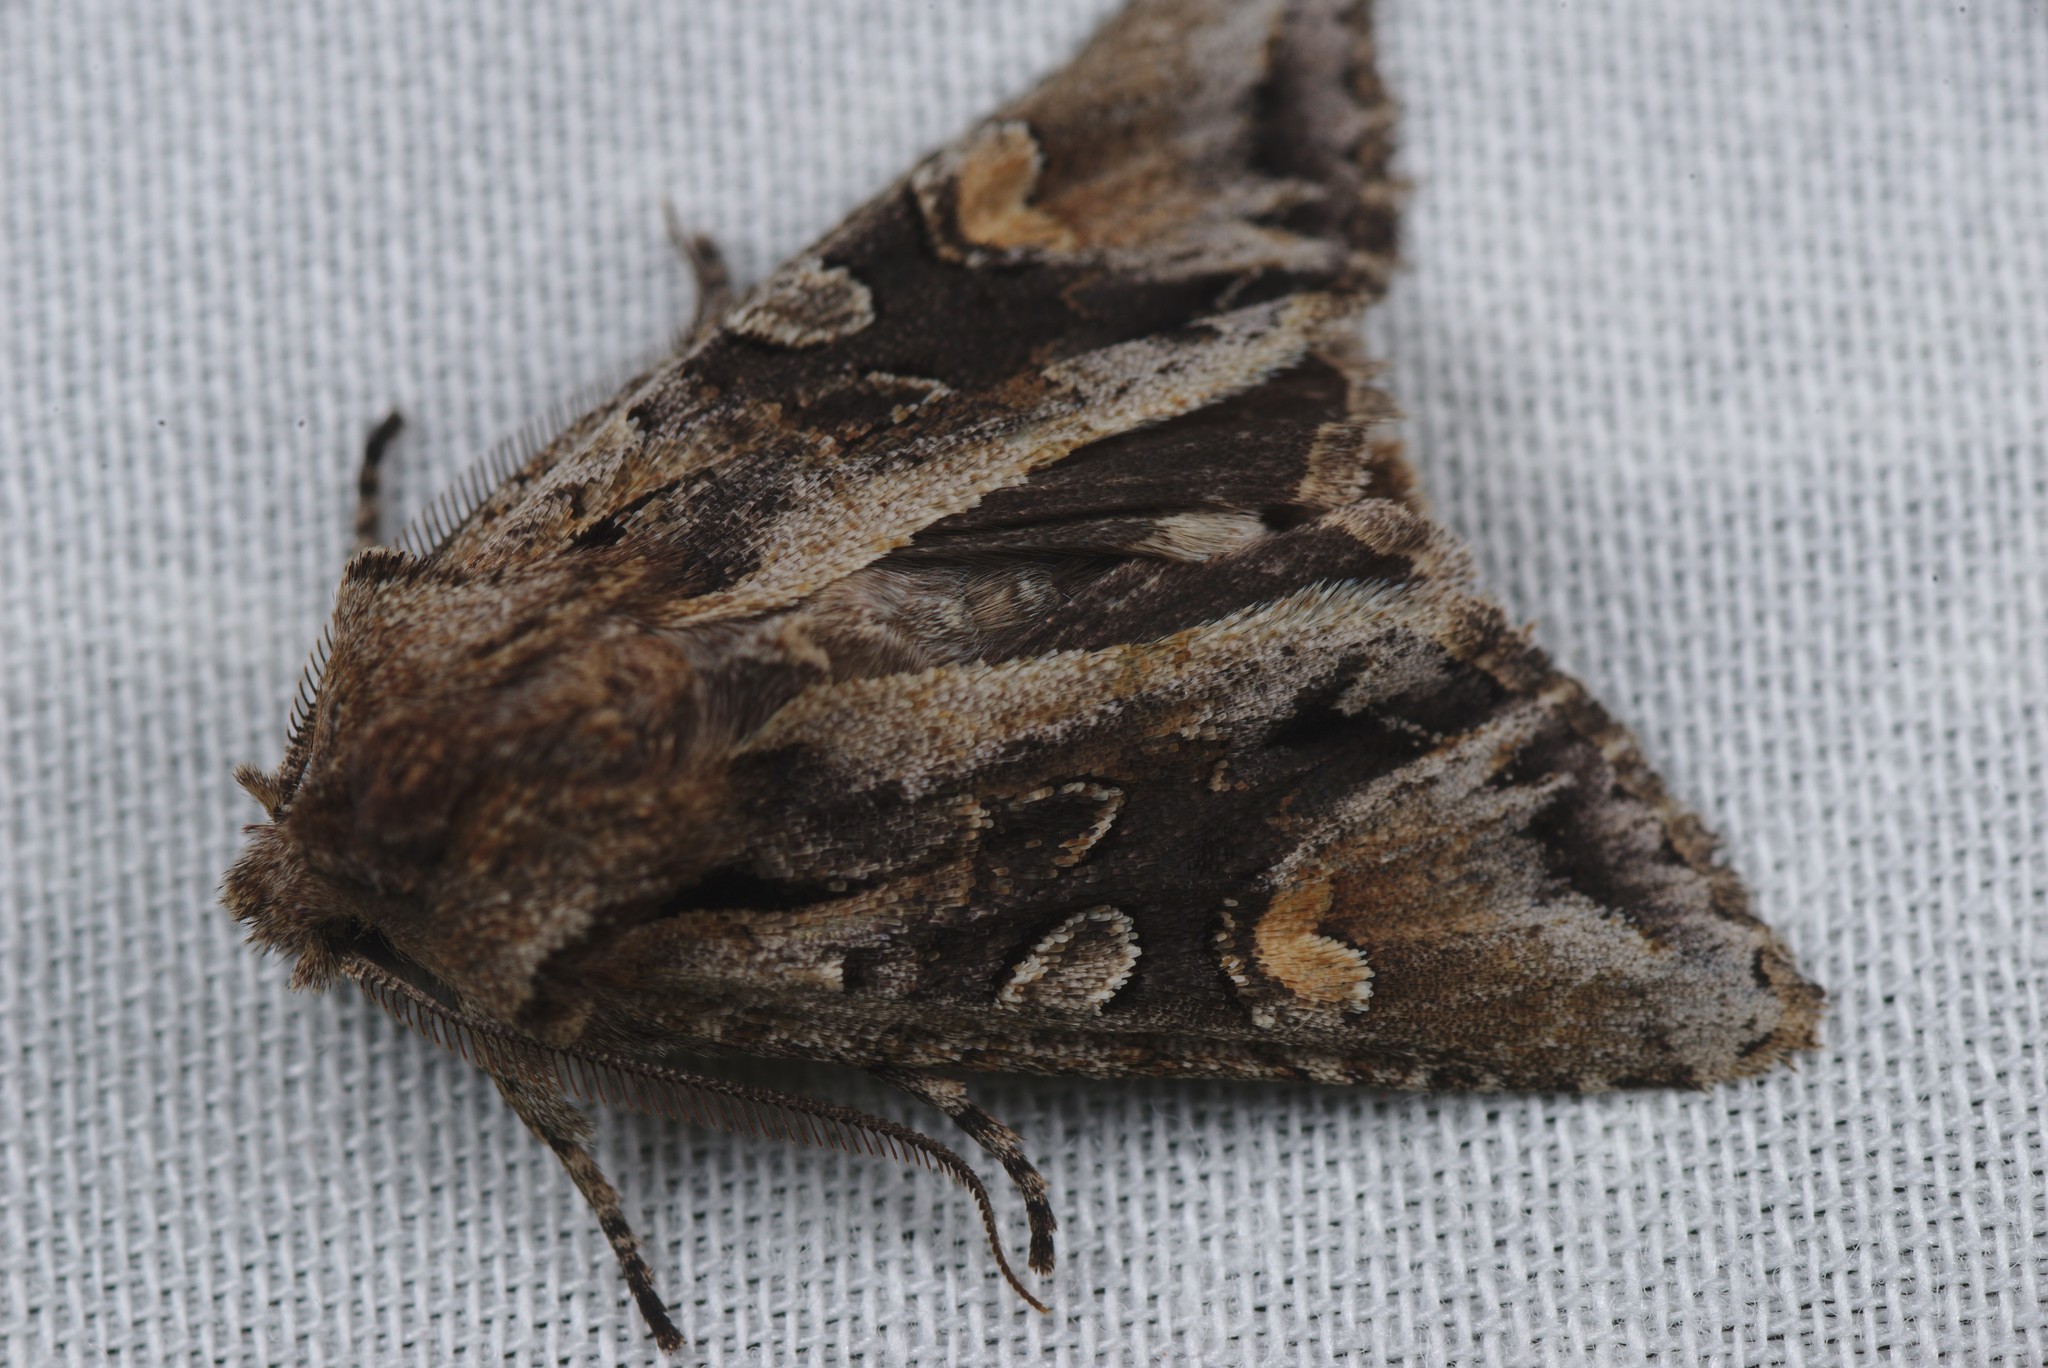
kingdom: Animalia
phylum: Arthropoda
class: Insecta
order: Lepidoptera
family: Noctuidae
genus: Ichneutica
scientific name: Ichneutica insignis
